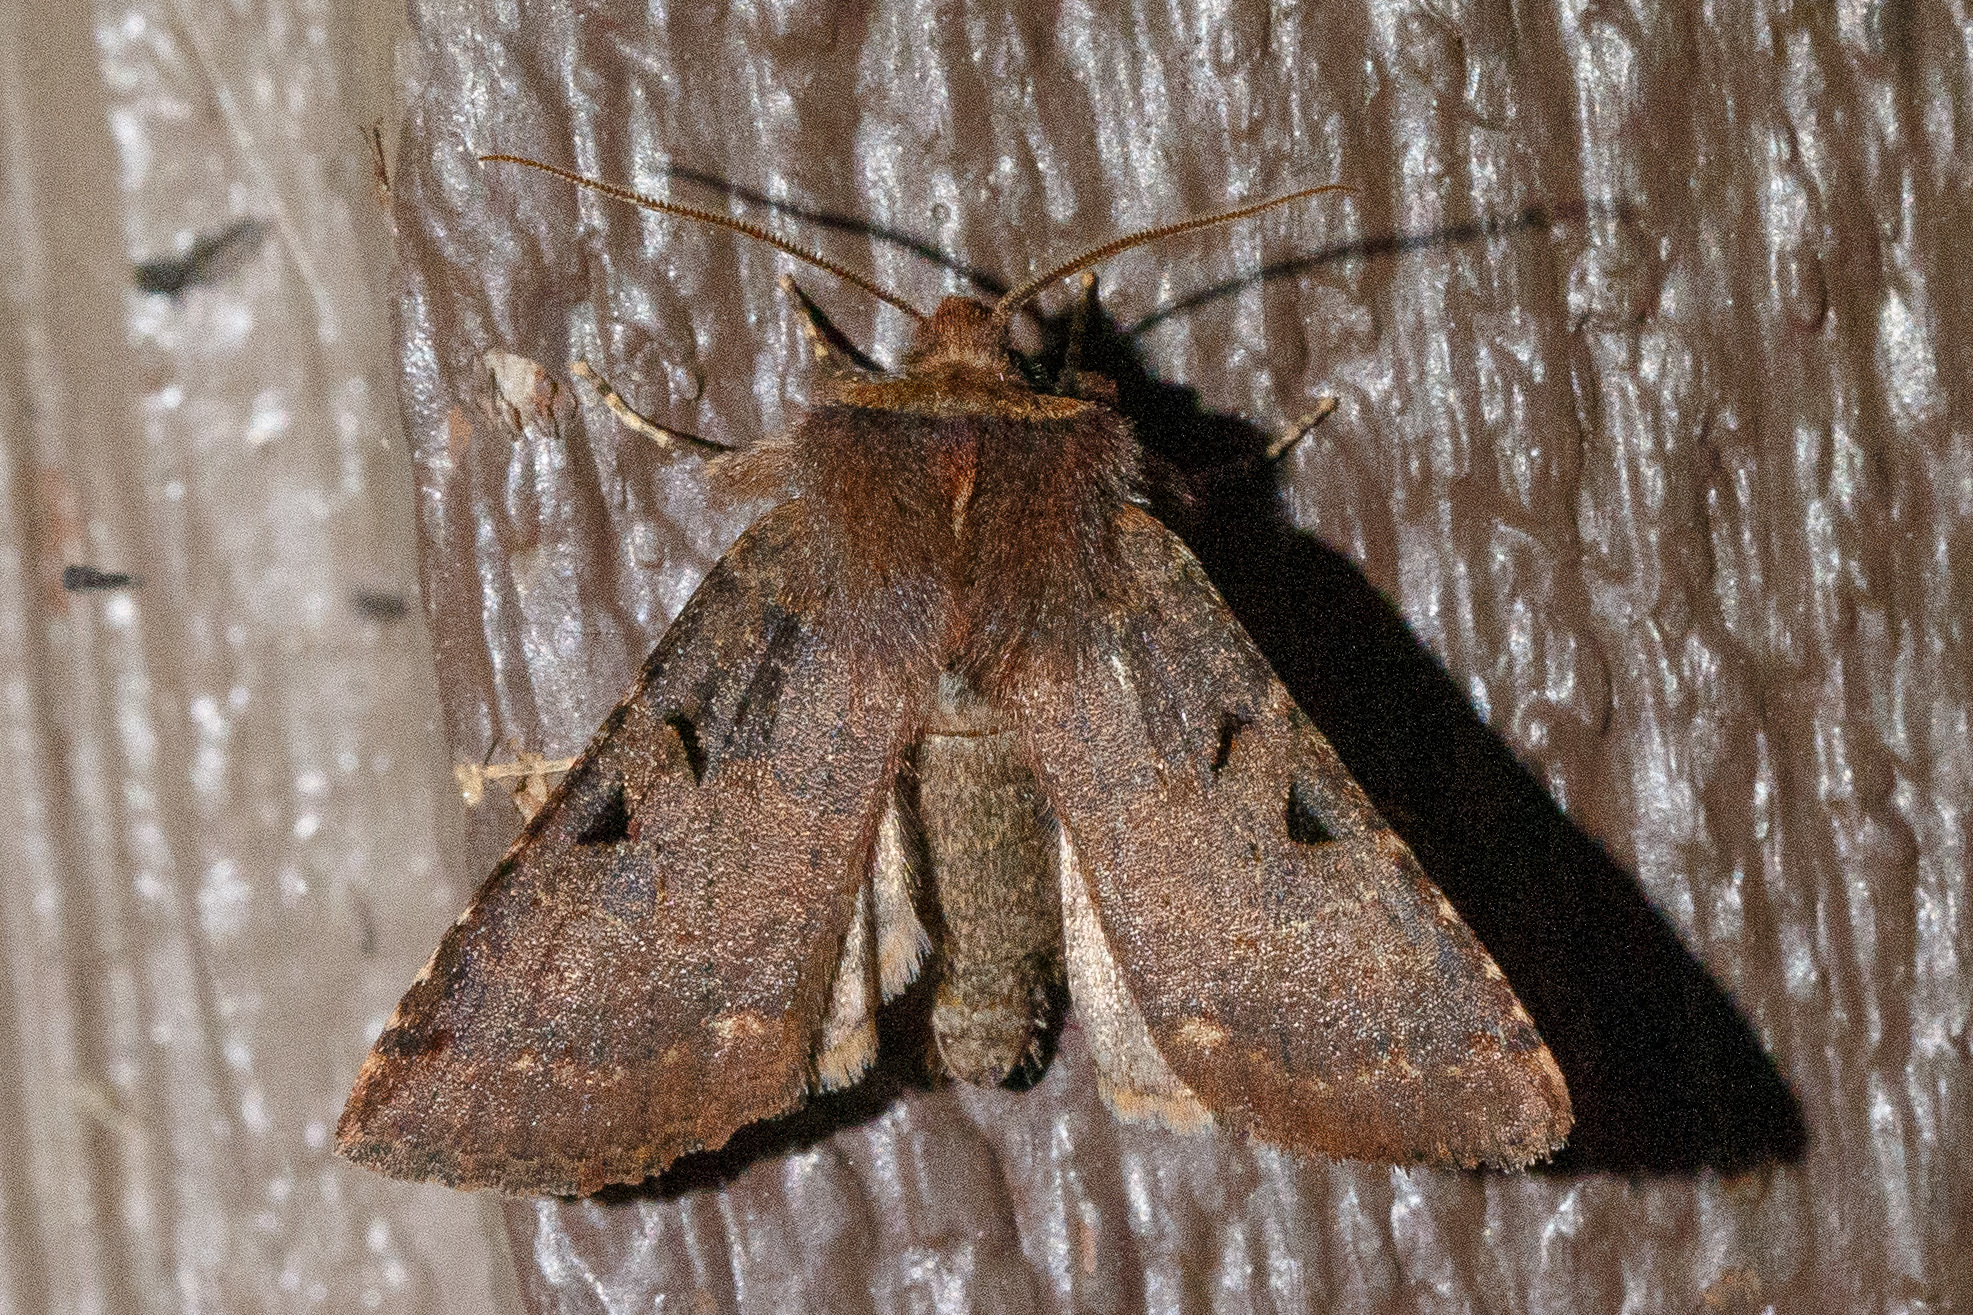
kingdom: Animalia
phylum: Arthropoda
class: Insecta
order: Lepidoptera
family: Noctuidae
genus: Orthosia
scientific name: Orthosia praeses
